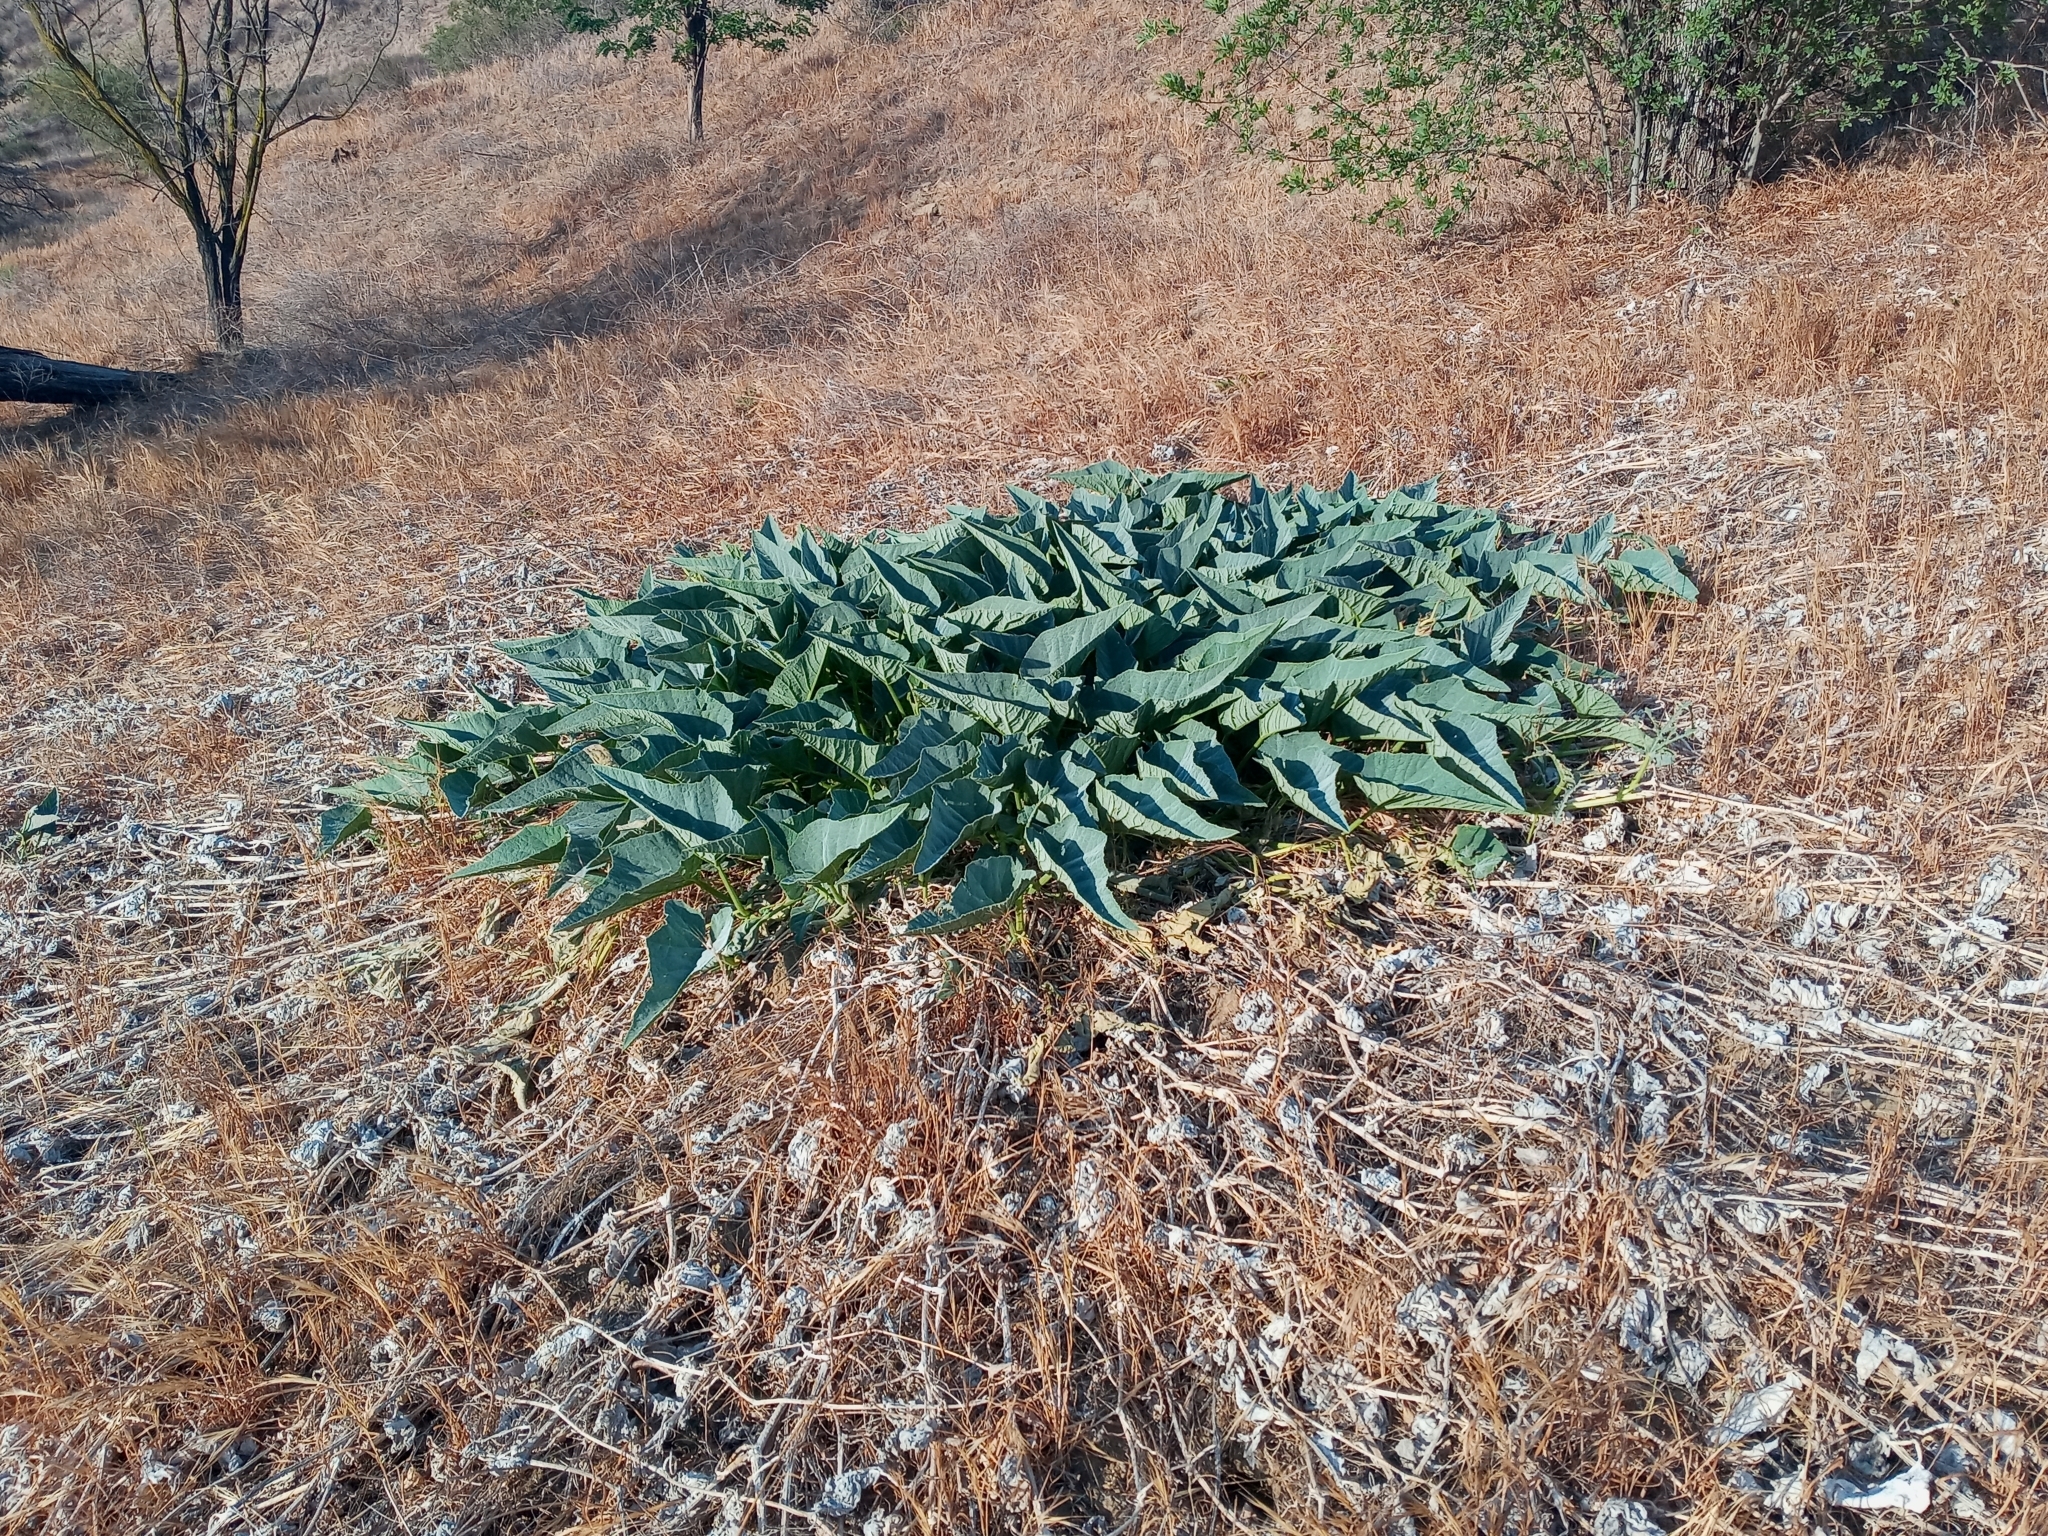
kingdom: Plantae
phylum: Tracheophyta
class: Magnoliopsida
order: Cucurbitales
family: Cucurbitaceae
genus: Cucurbita
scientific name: Cucurbita foetidissima
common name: Buffalo gourd
